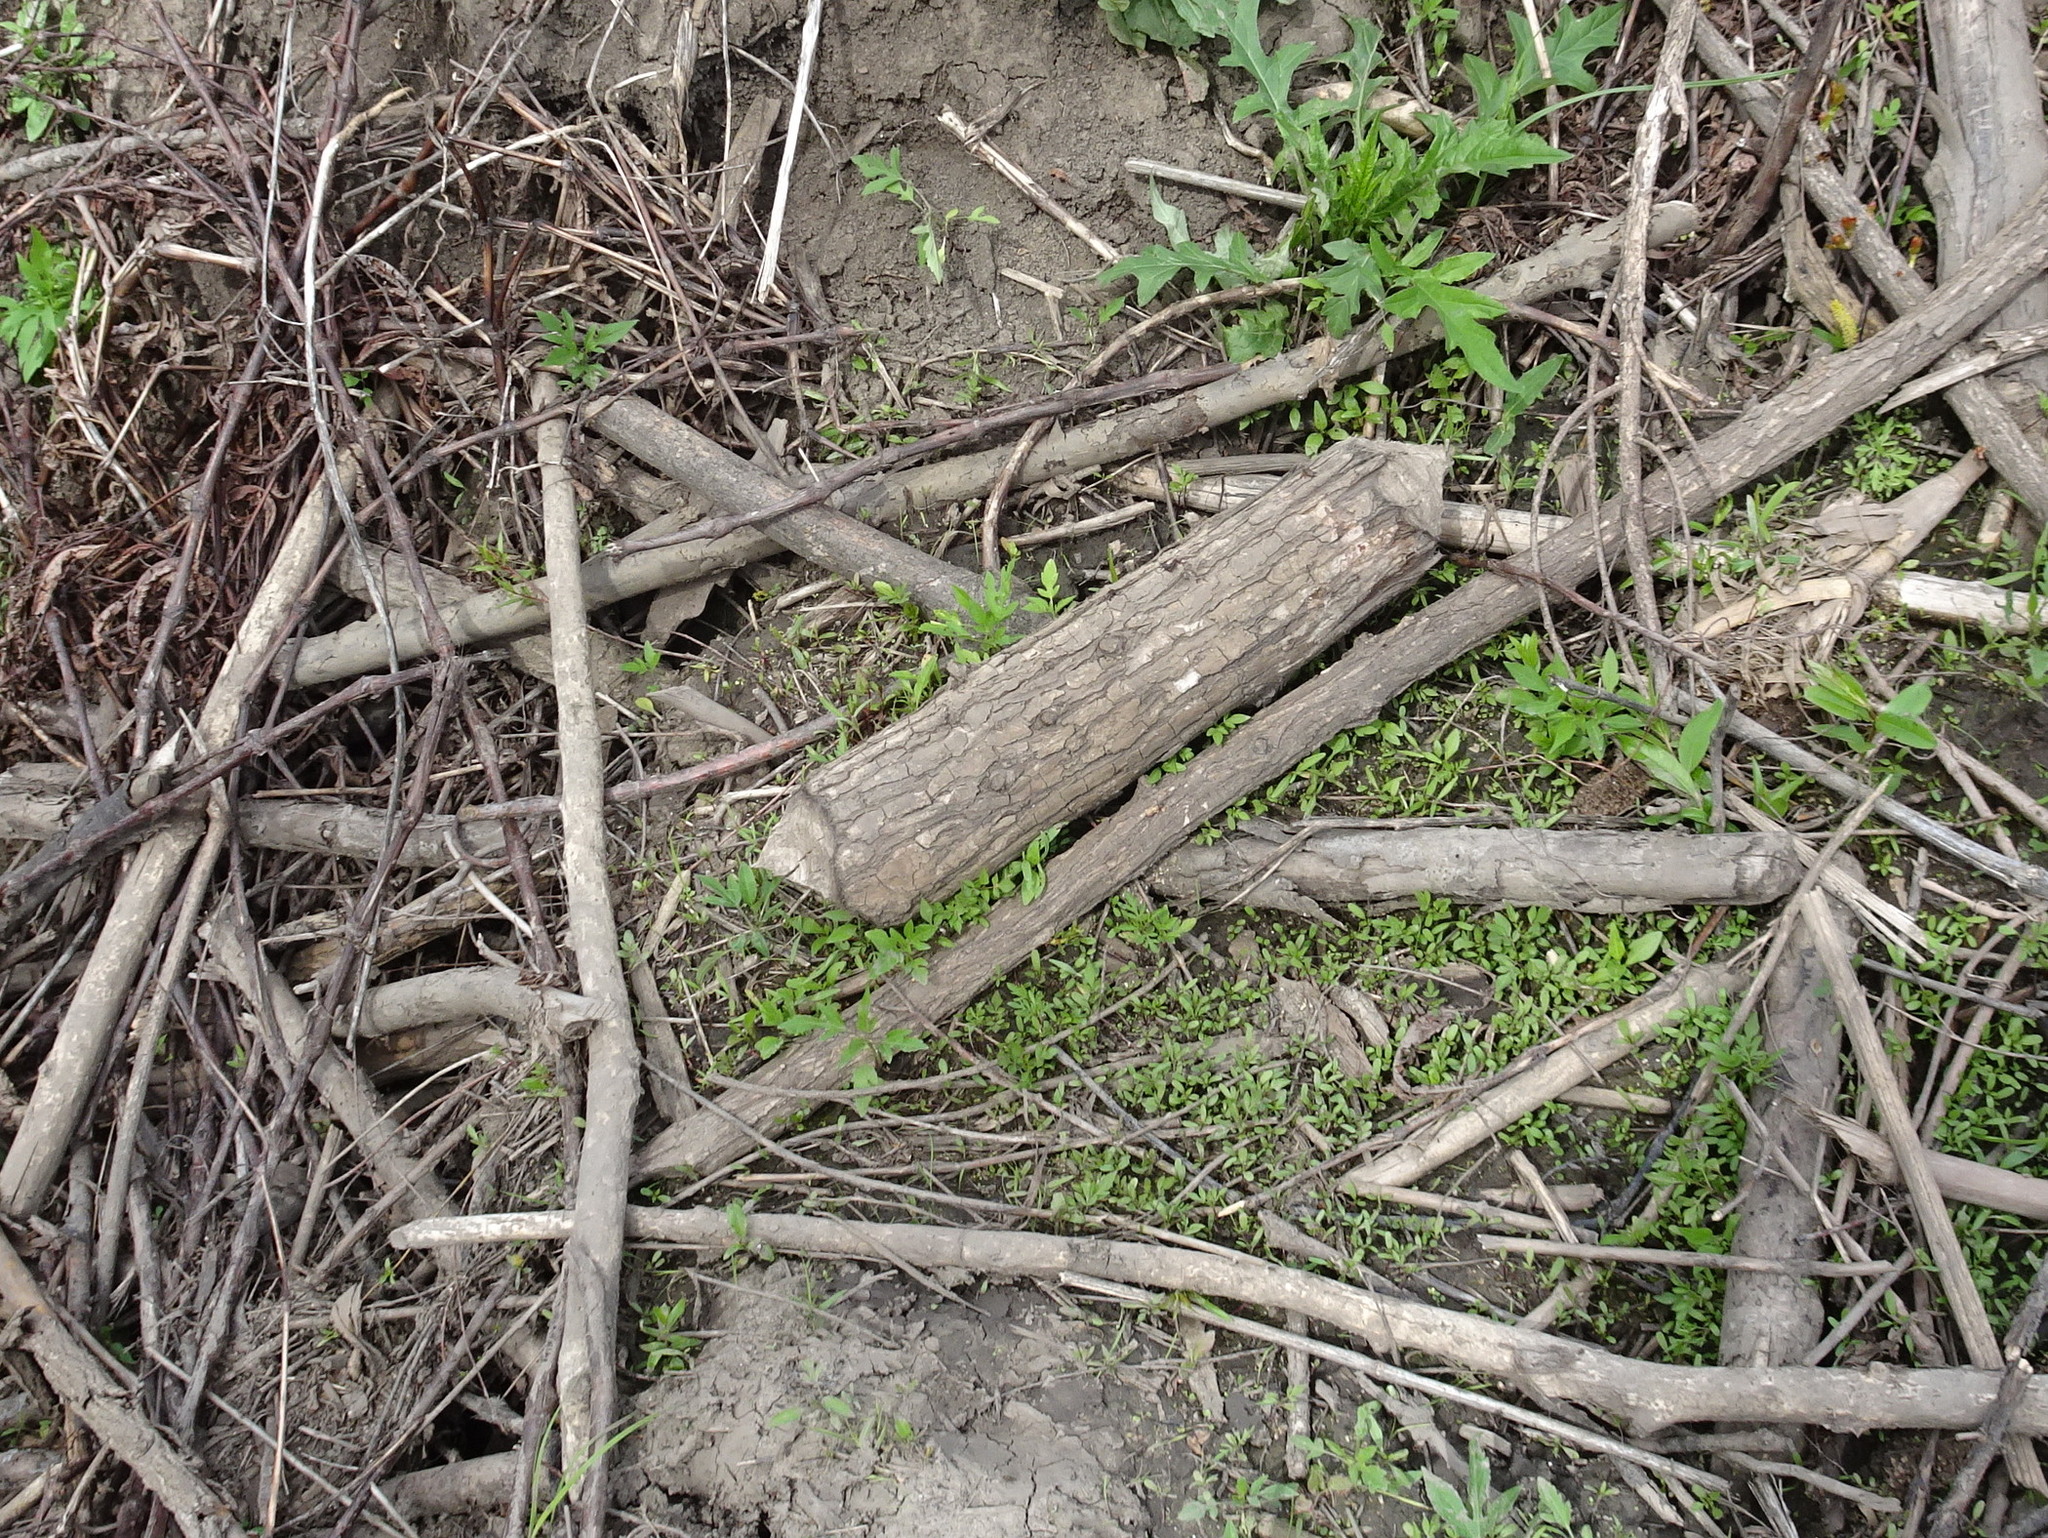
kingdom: Animalia
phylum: Chordata
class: Mammalia
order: Rodentia
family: Castoridae
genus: Castor
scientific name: Castor canadensis
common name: American beaver
